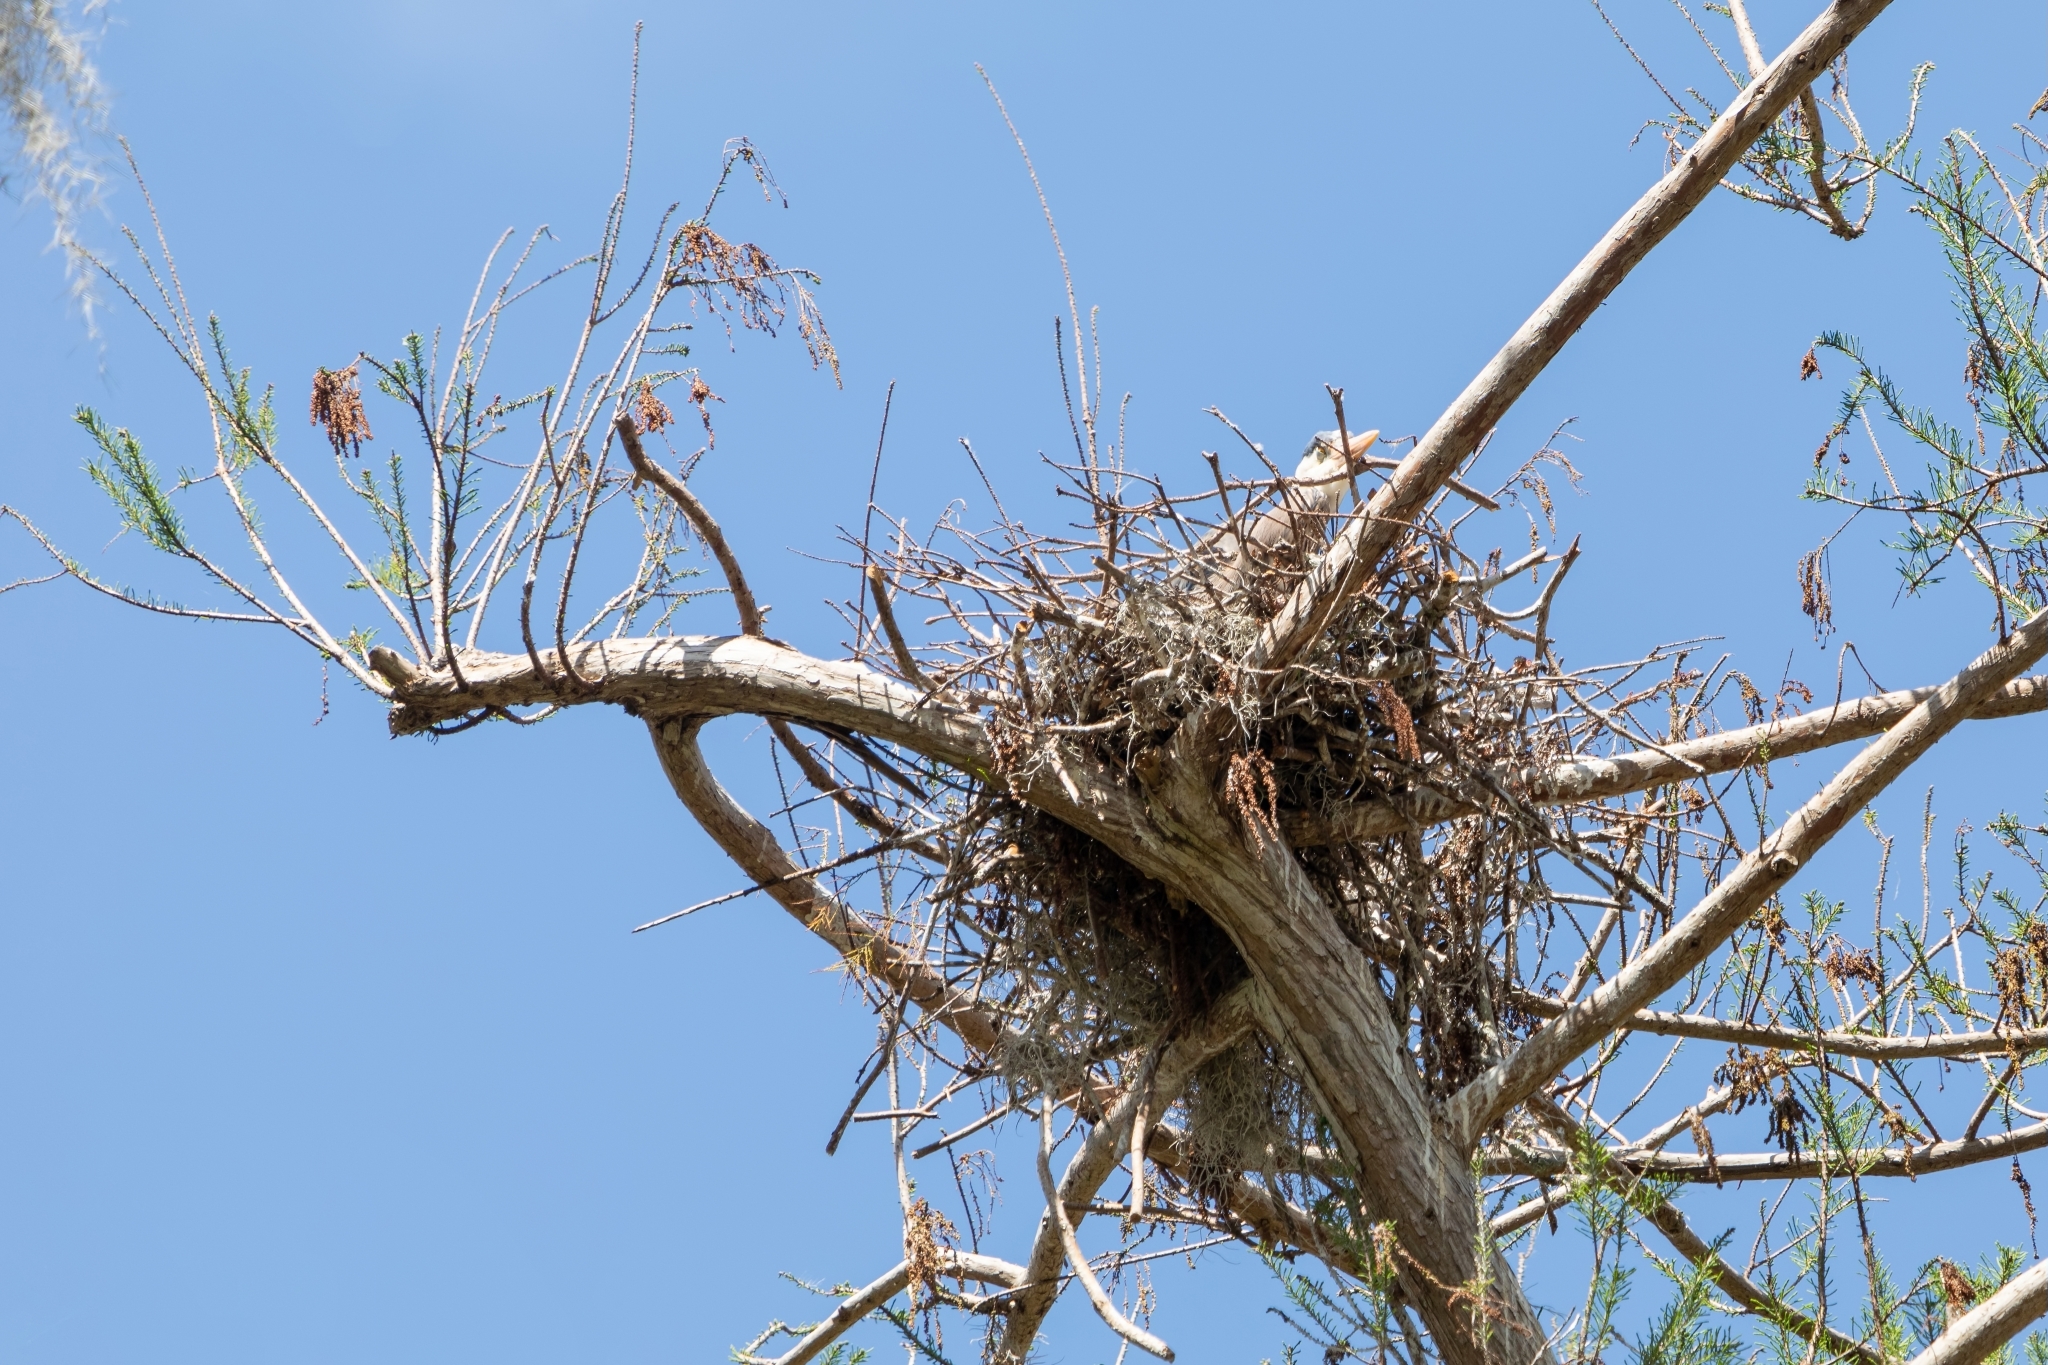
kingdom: Animalia
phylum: Chordata
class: Aves
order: Pelecaniformes
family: Ardeidae
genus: Ardea
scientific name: Ardea herodias
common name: Great blue heron
